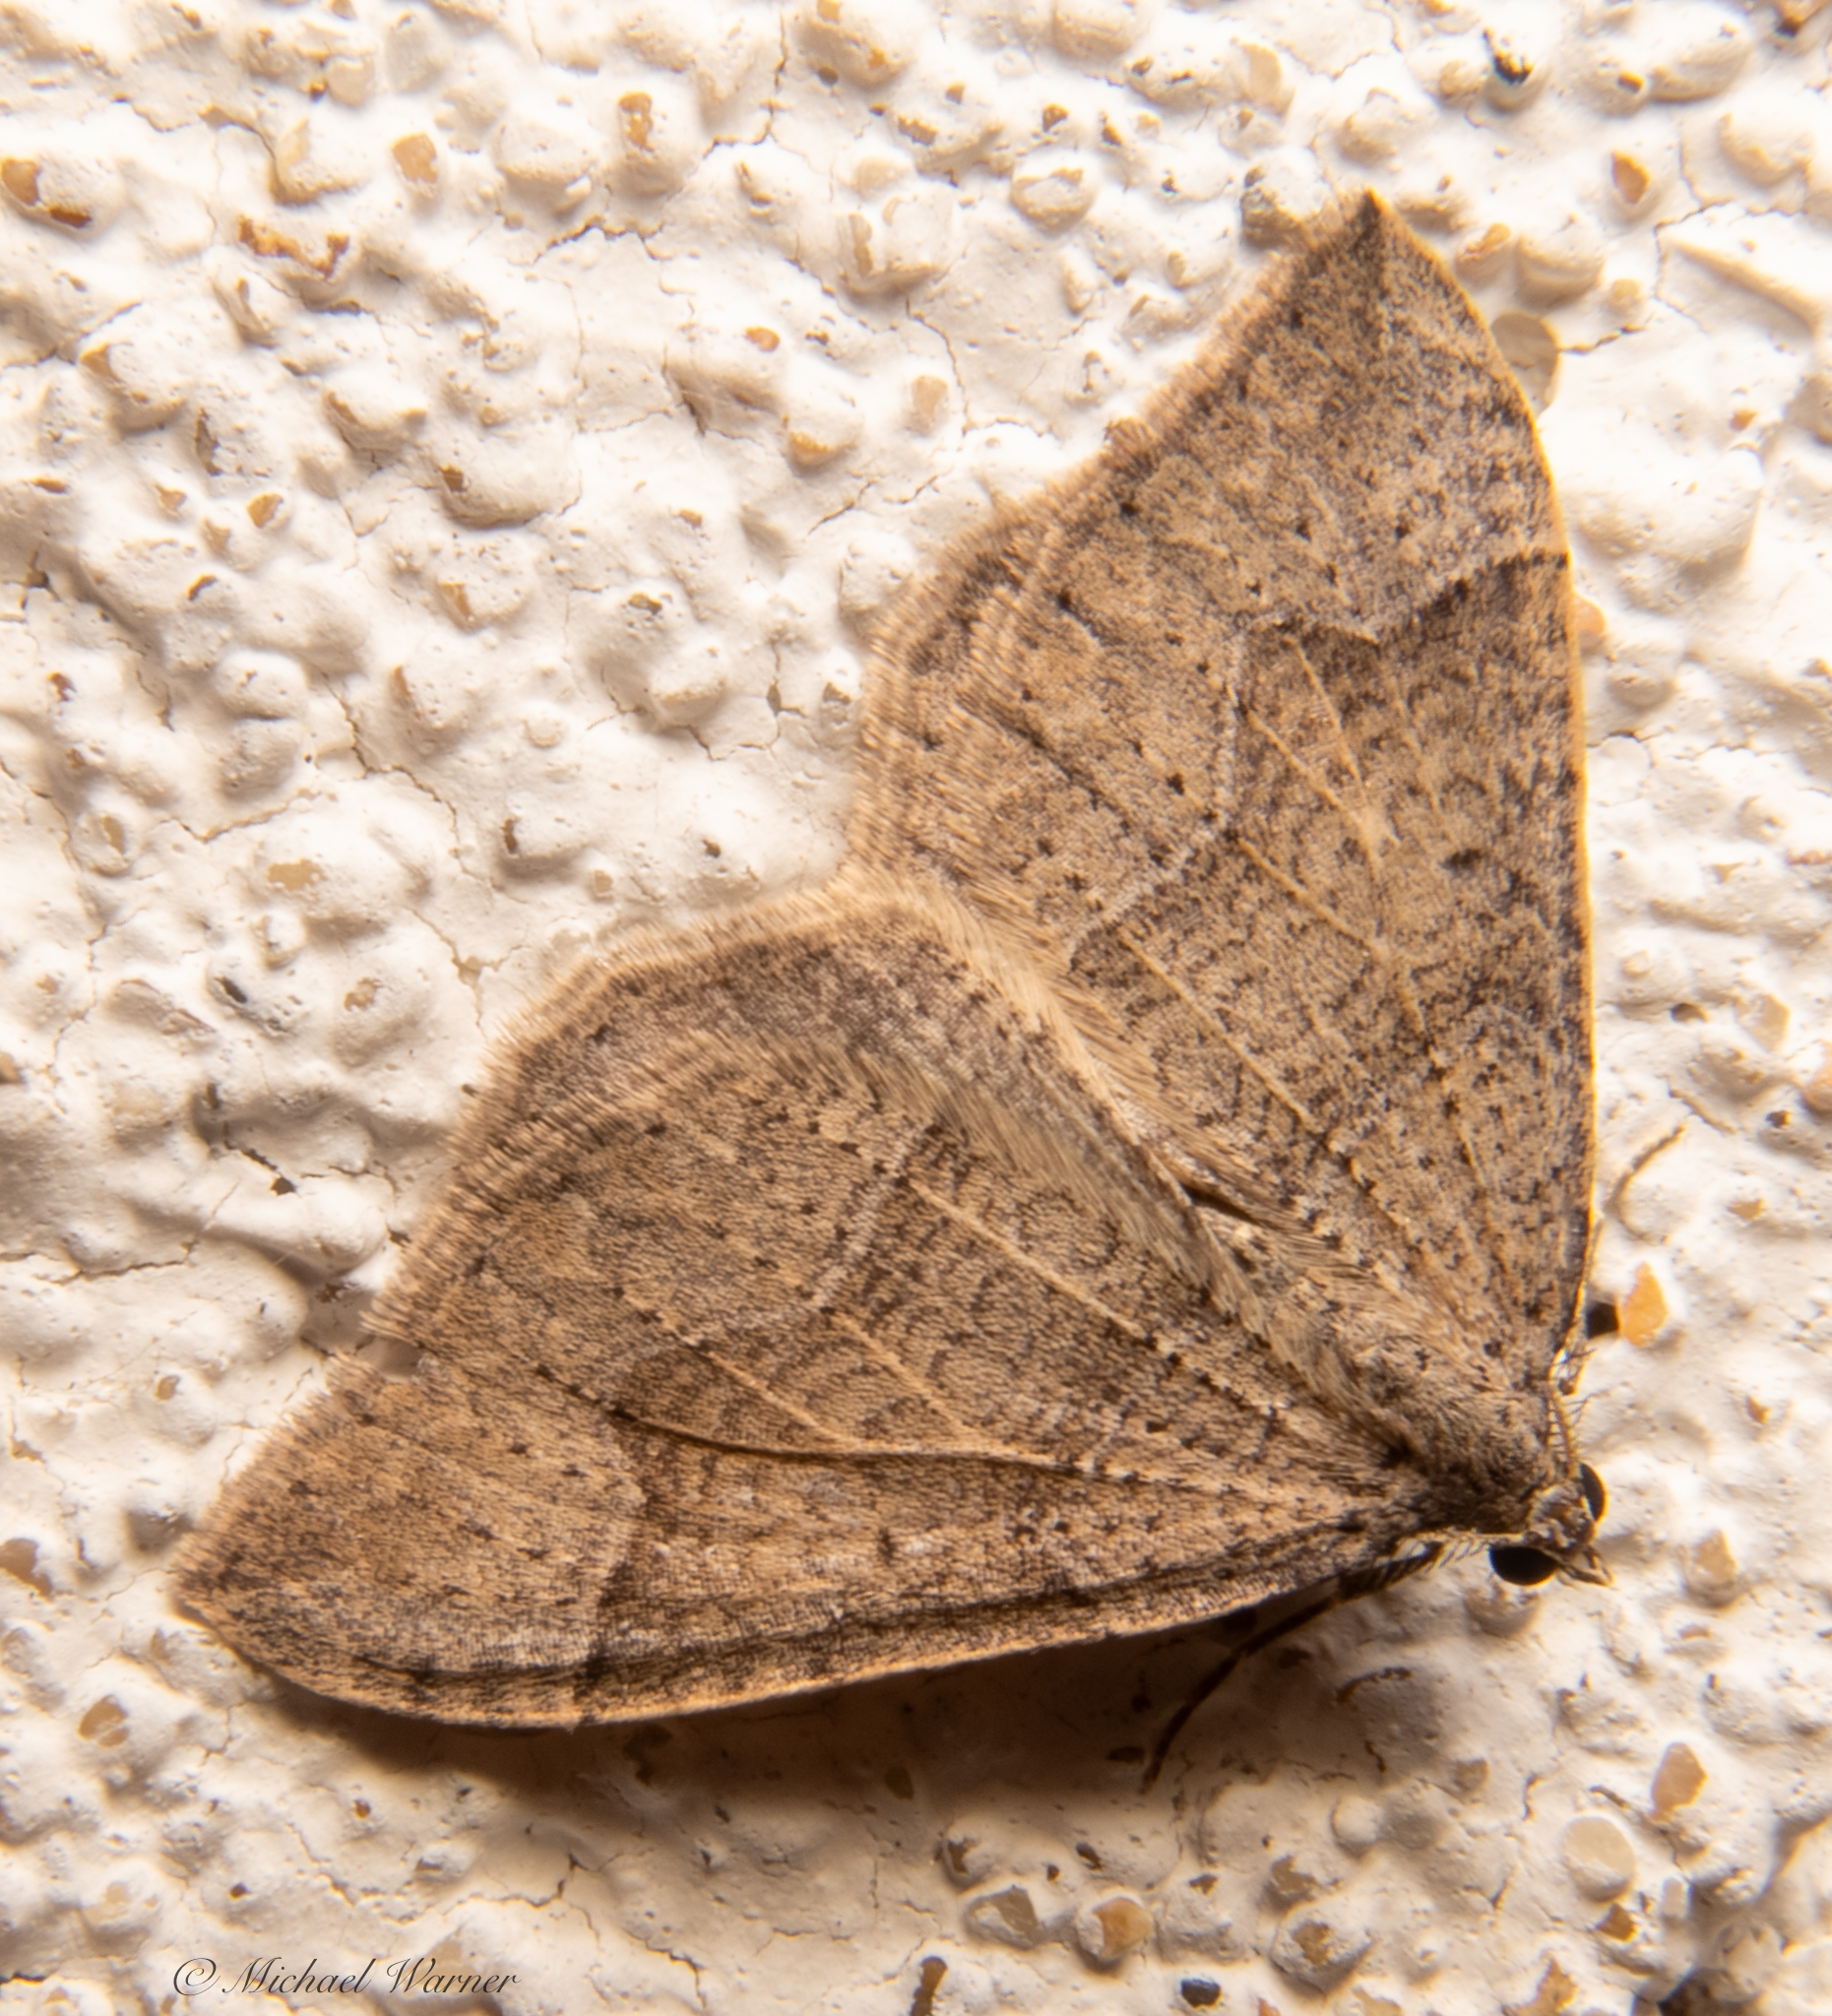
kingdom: Animalia
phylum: Arthropoda
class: Insecta
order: Lepidoptera
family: Geometridae
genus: Zenophleps
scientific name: Zenophleps lignicolorata
